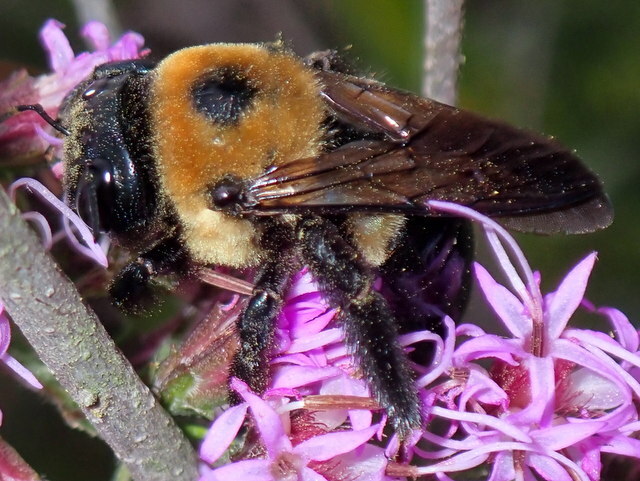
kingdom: Animalia
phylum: Arthropoda
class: Insecta
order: Hymenoptera
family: Apidae
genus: Xylocopa
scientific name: Xylocopa virginica
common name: Carpenter bee
